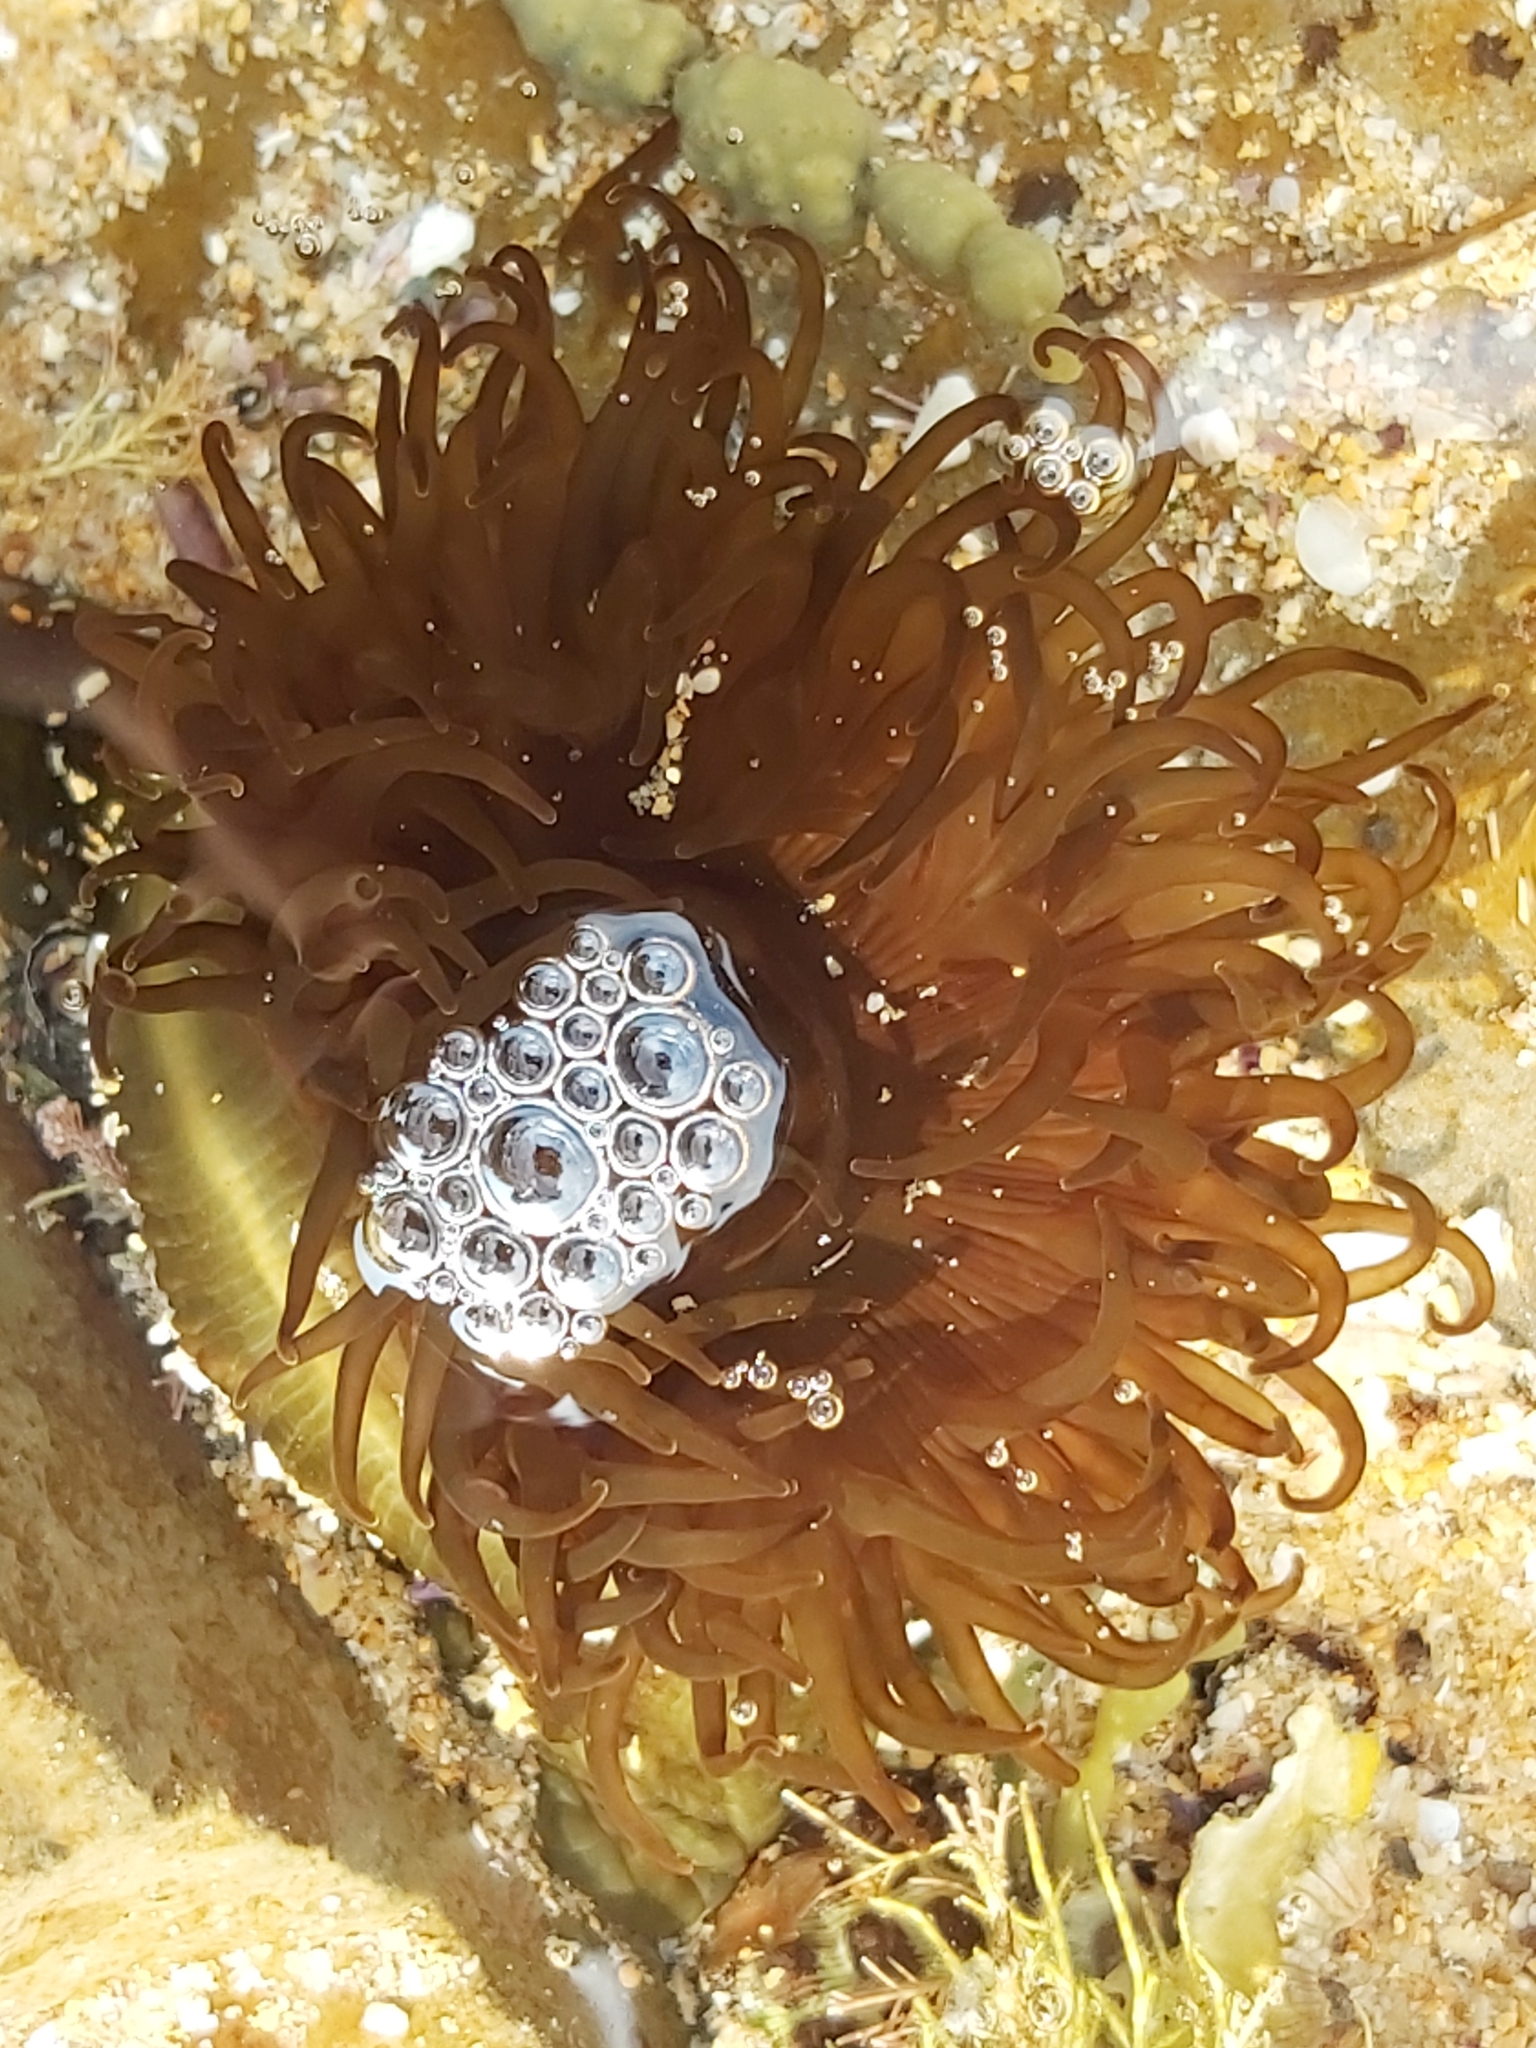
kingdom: Animalia
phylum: Cnidaria
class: Anthozoa
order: Actiniaria
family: Actiniidae
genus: Aulactinia
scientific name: Aulactinia veratra
